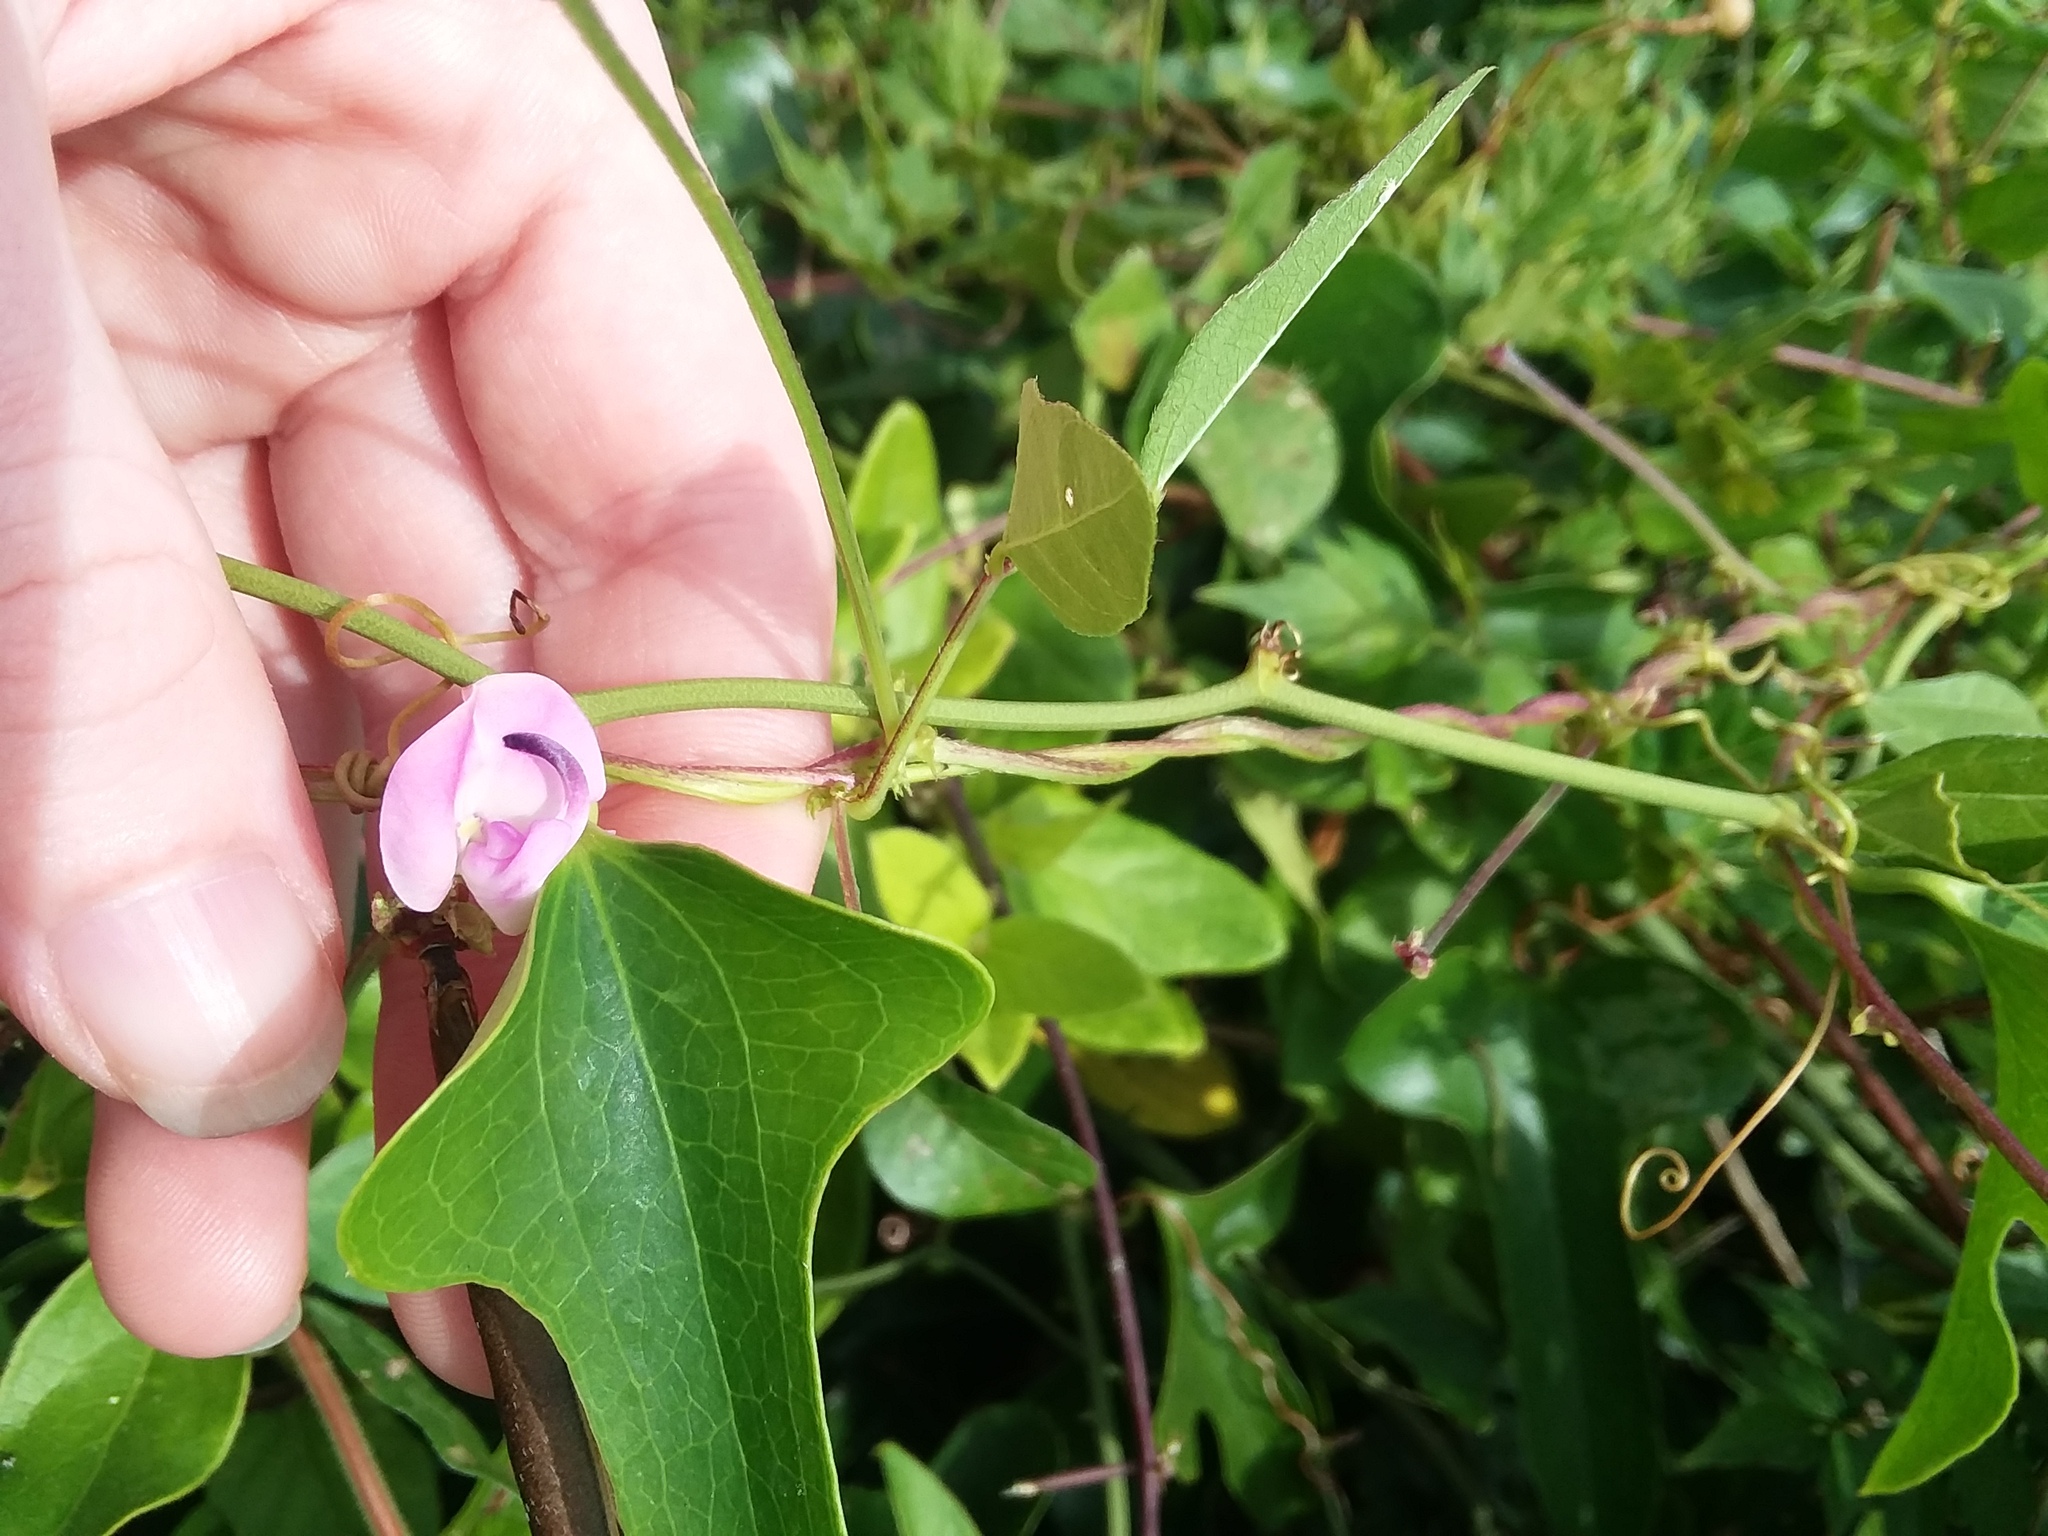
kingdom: Plantae
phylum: Tracheophyta
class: Magnoliopsida
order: Fabales
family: Fabaceae
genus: Strophostyles
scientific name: Strophostyles helvola
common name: Trailing wild bean
